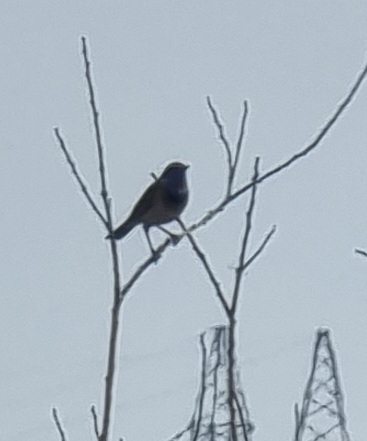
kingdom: Animalia
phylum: Chordata
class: Aves
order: Passeriformes
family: Muscicapidae
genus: Luscinia
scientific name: Luscinia svecica
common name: Bluethroat
